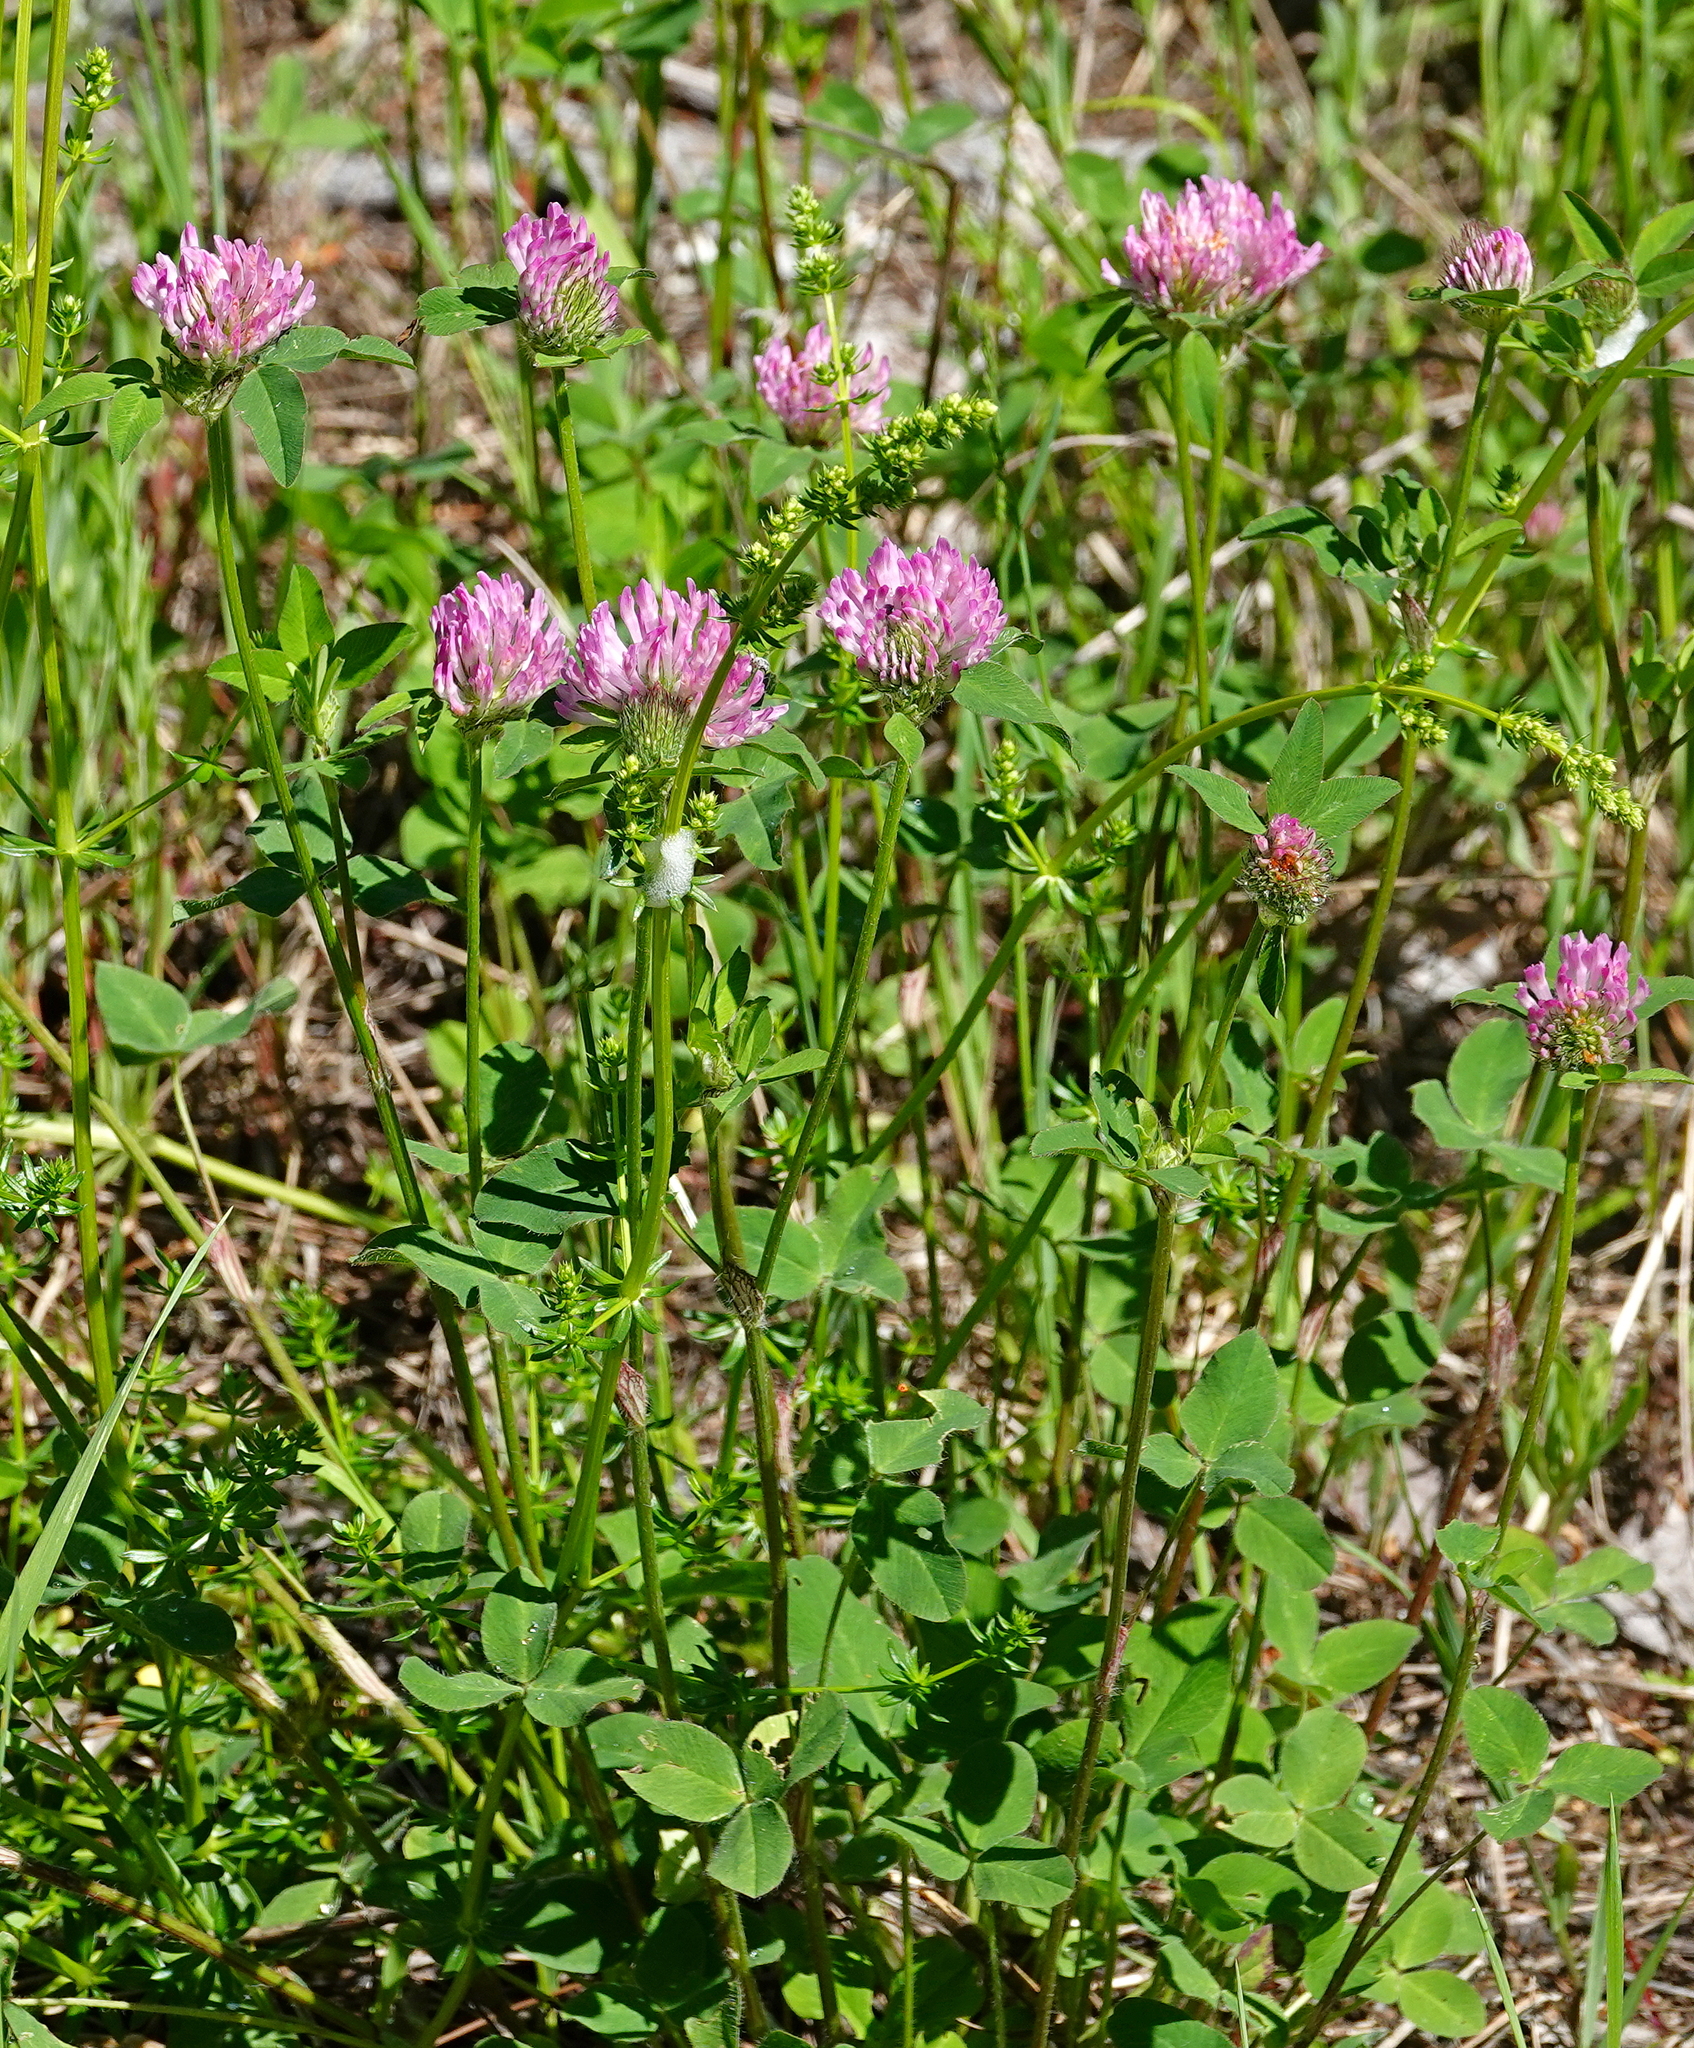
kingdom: Plantae
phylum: Tracheophyta
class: Magnoliopsida
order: Fabales
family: Fabaceae
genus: Trifolium
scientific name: Trifolium pratense
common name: Red clover
